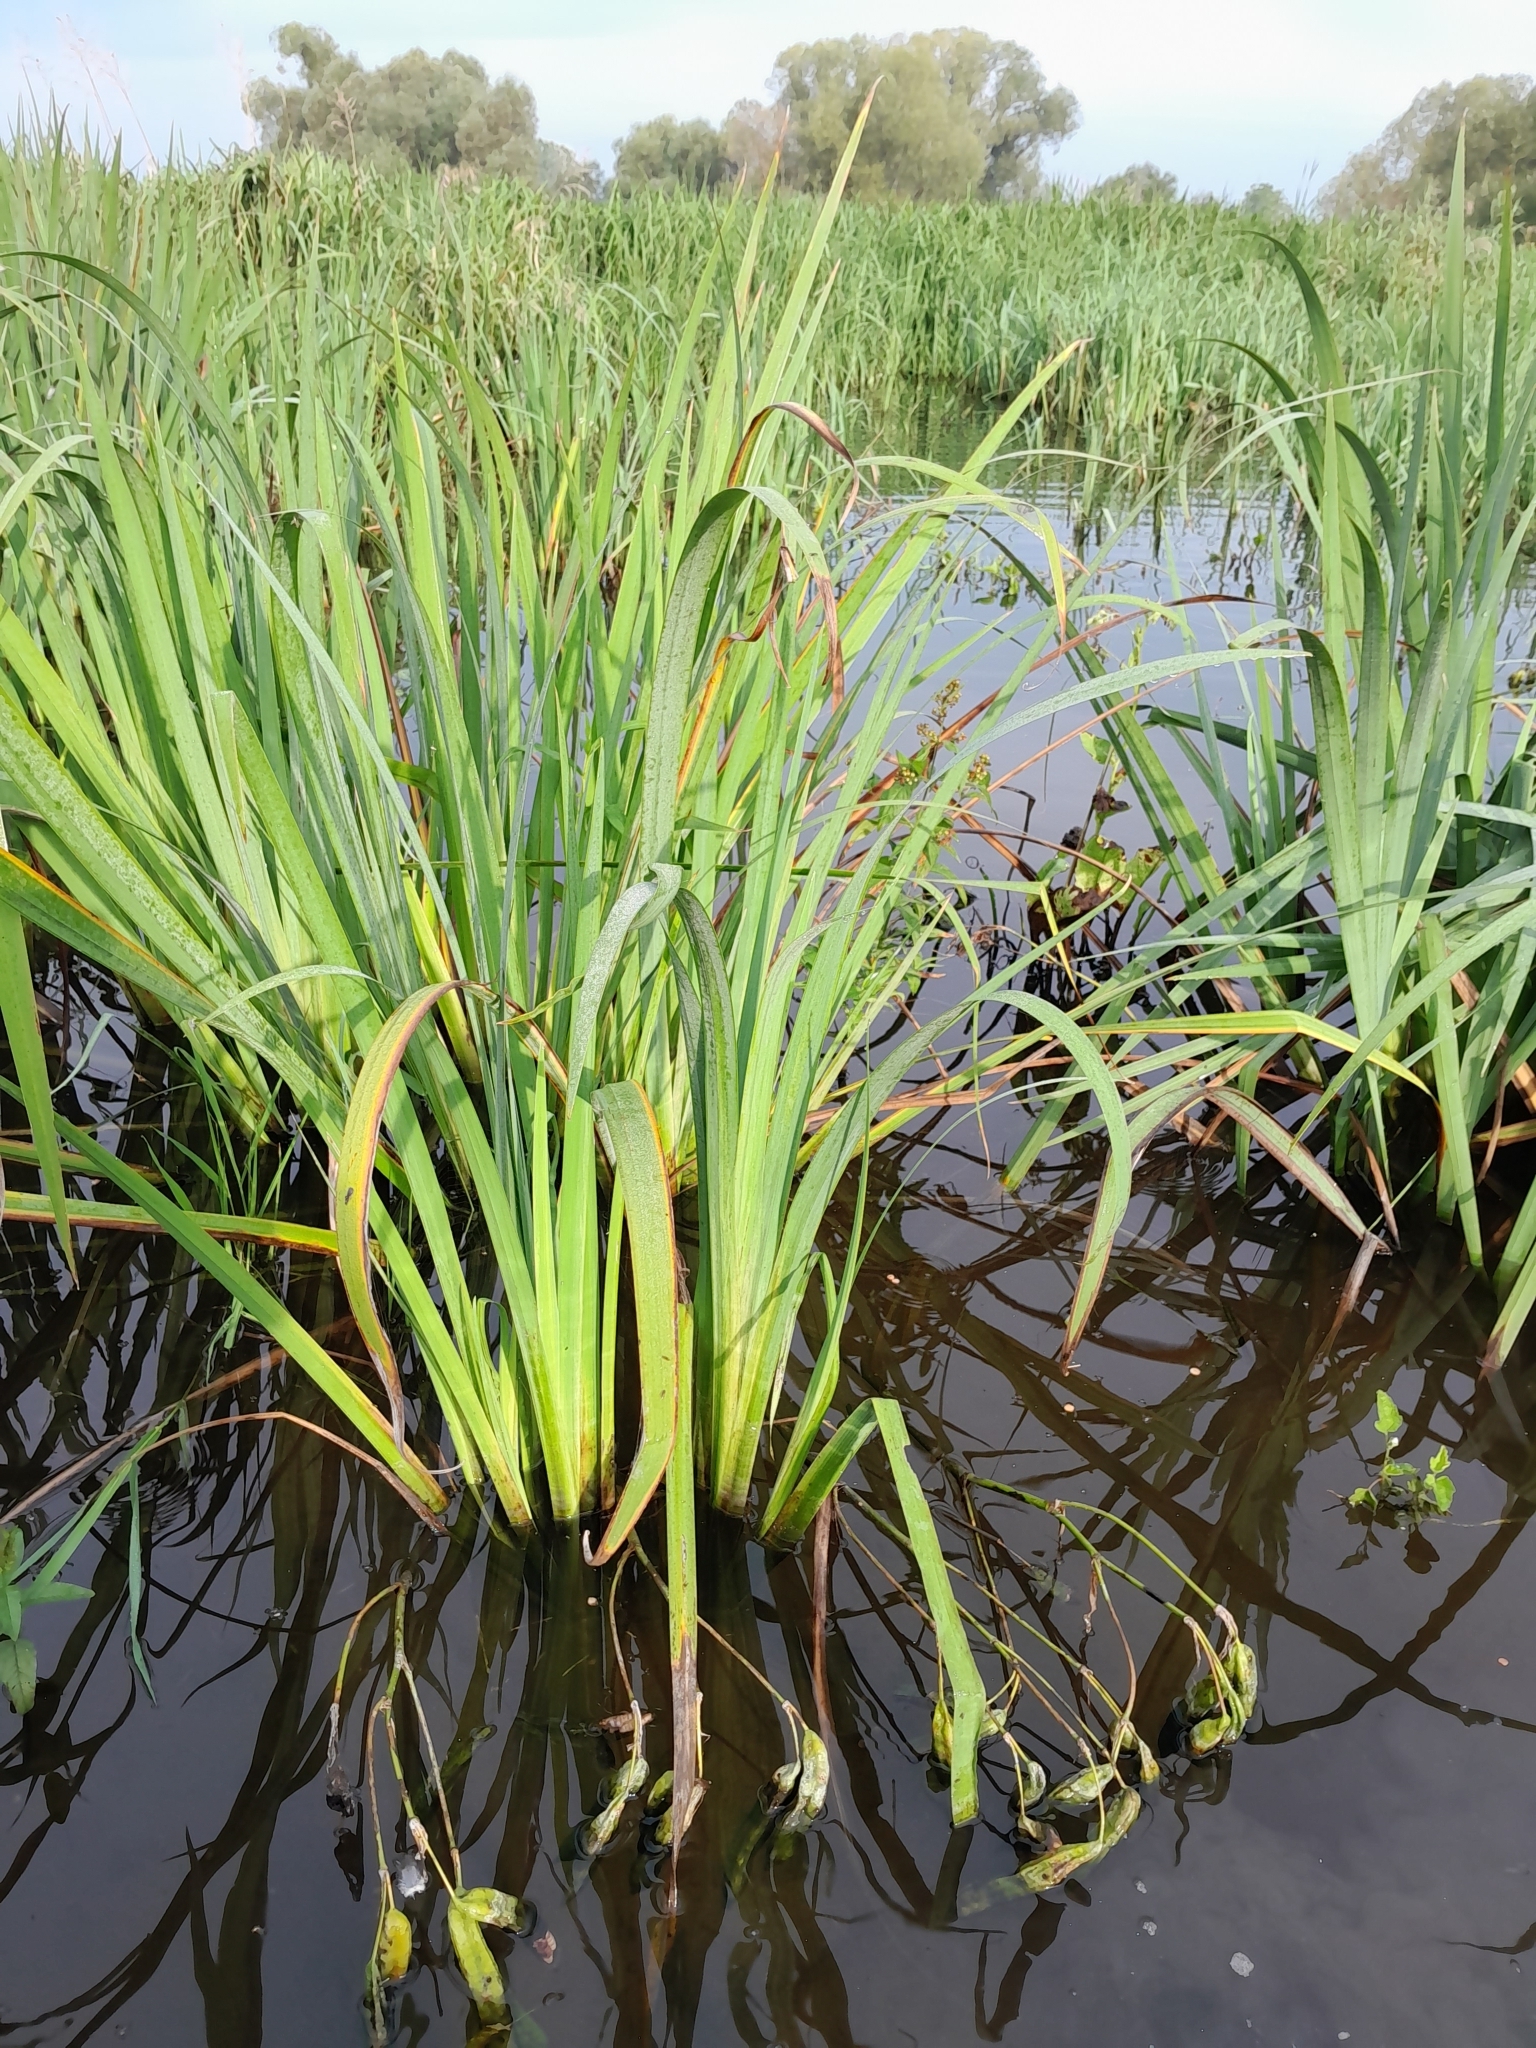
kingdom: Plantae
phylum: Tracheophyta
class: Liliopsida
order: Asparagales
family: Iridaceae
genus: Iris
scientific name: Iris pseudacorus
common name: Yellow flag
